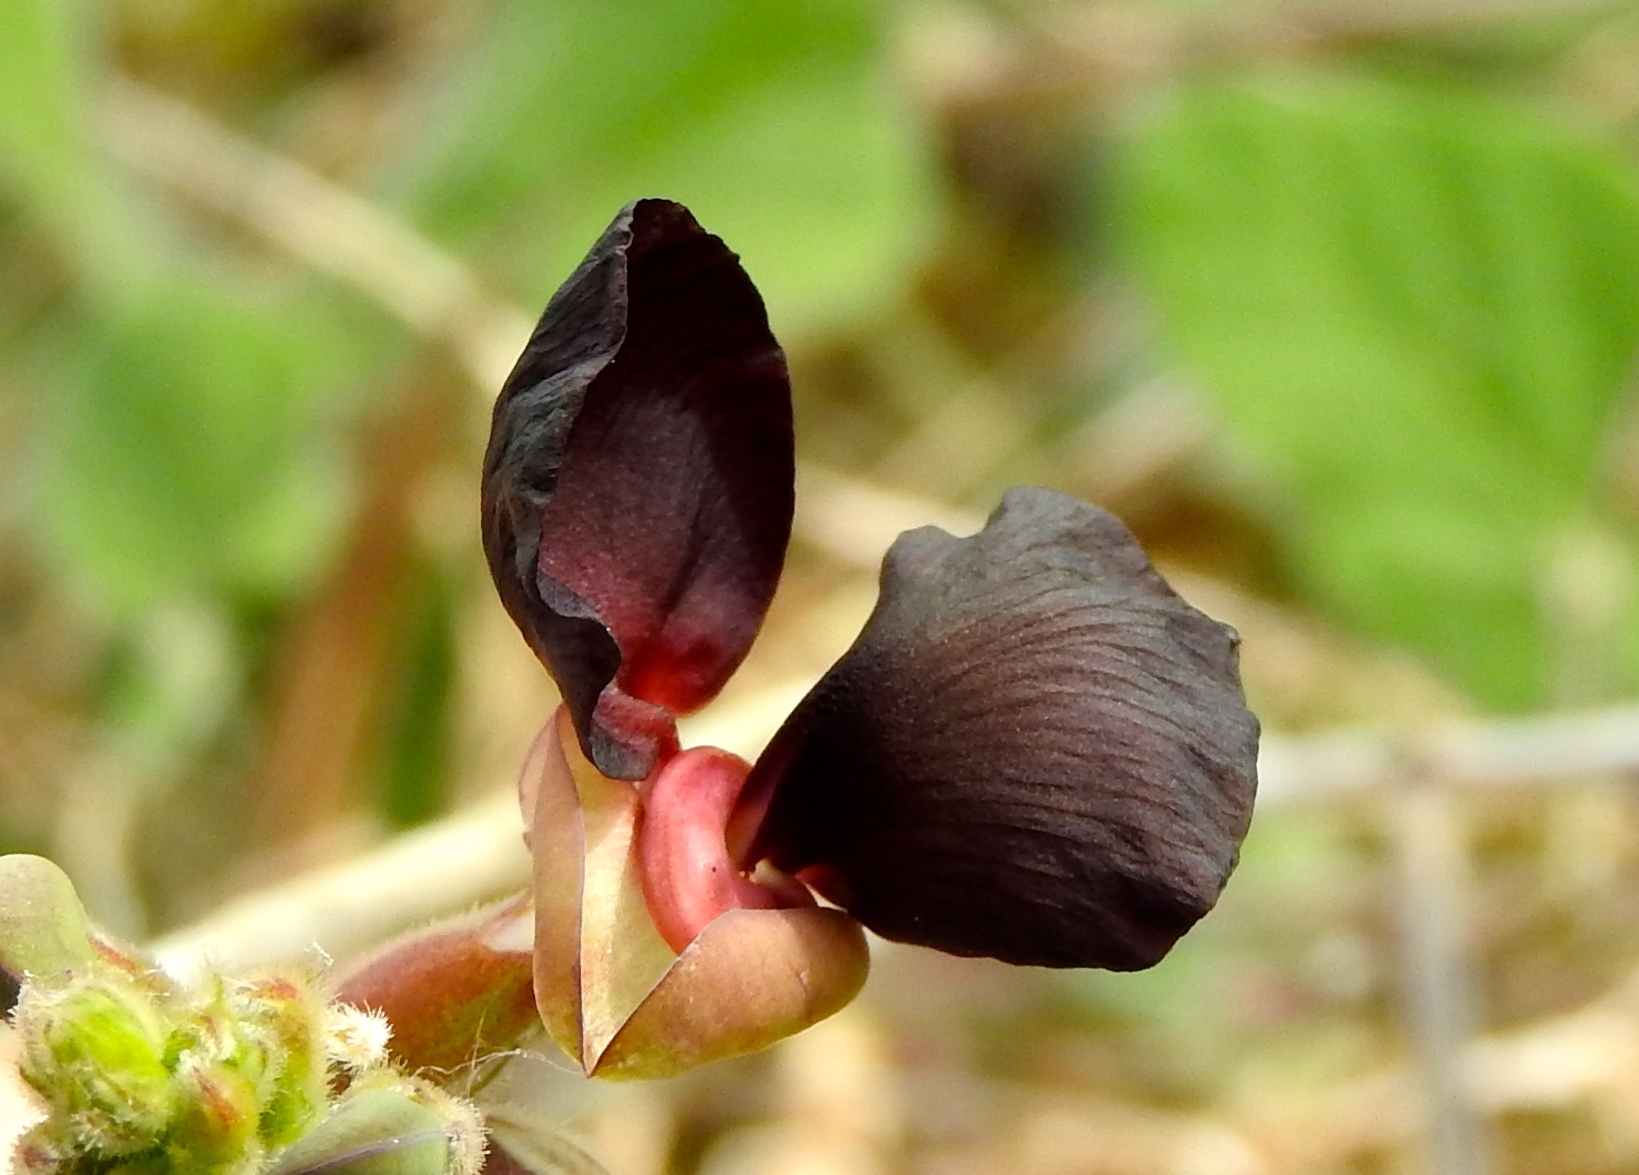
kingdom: Plantae
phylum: Tracheophyta
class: Magnoliopsida
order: Fabales
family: Fabaceae
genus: Macroptilium
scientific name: Macroptilium atropurpureum
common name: Purple bushbean
